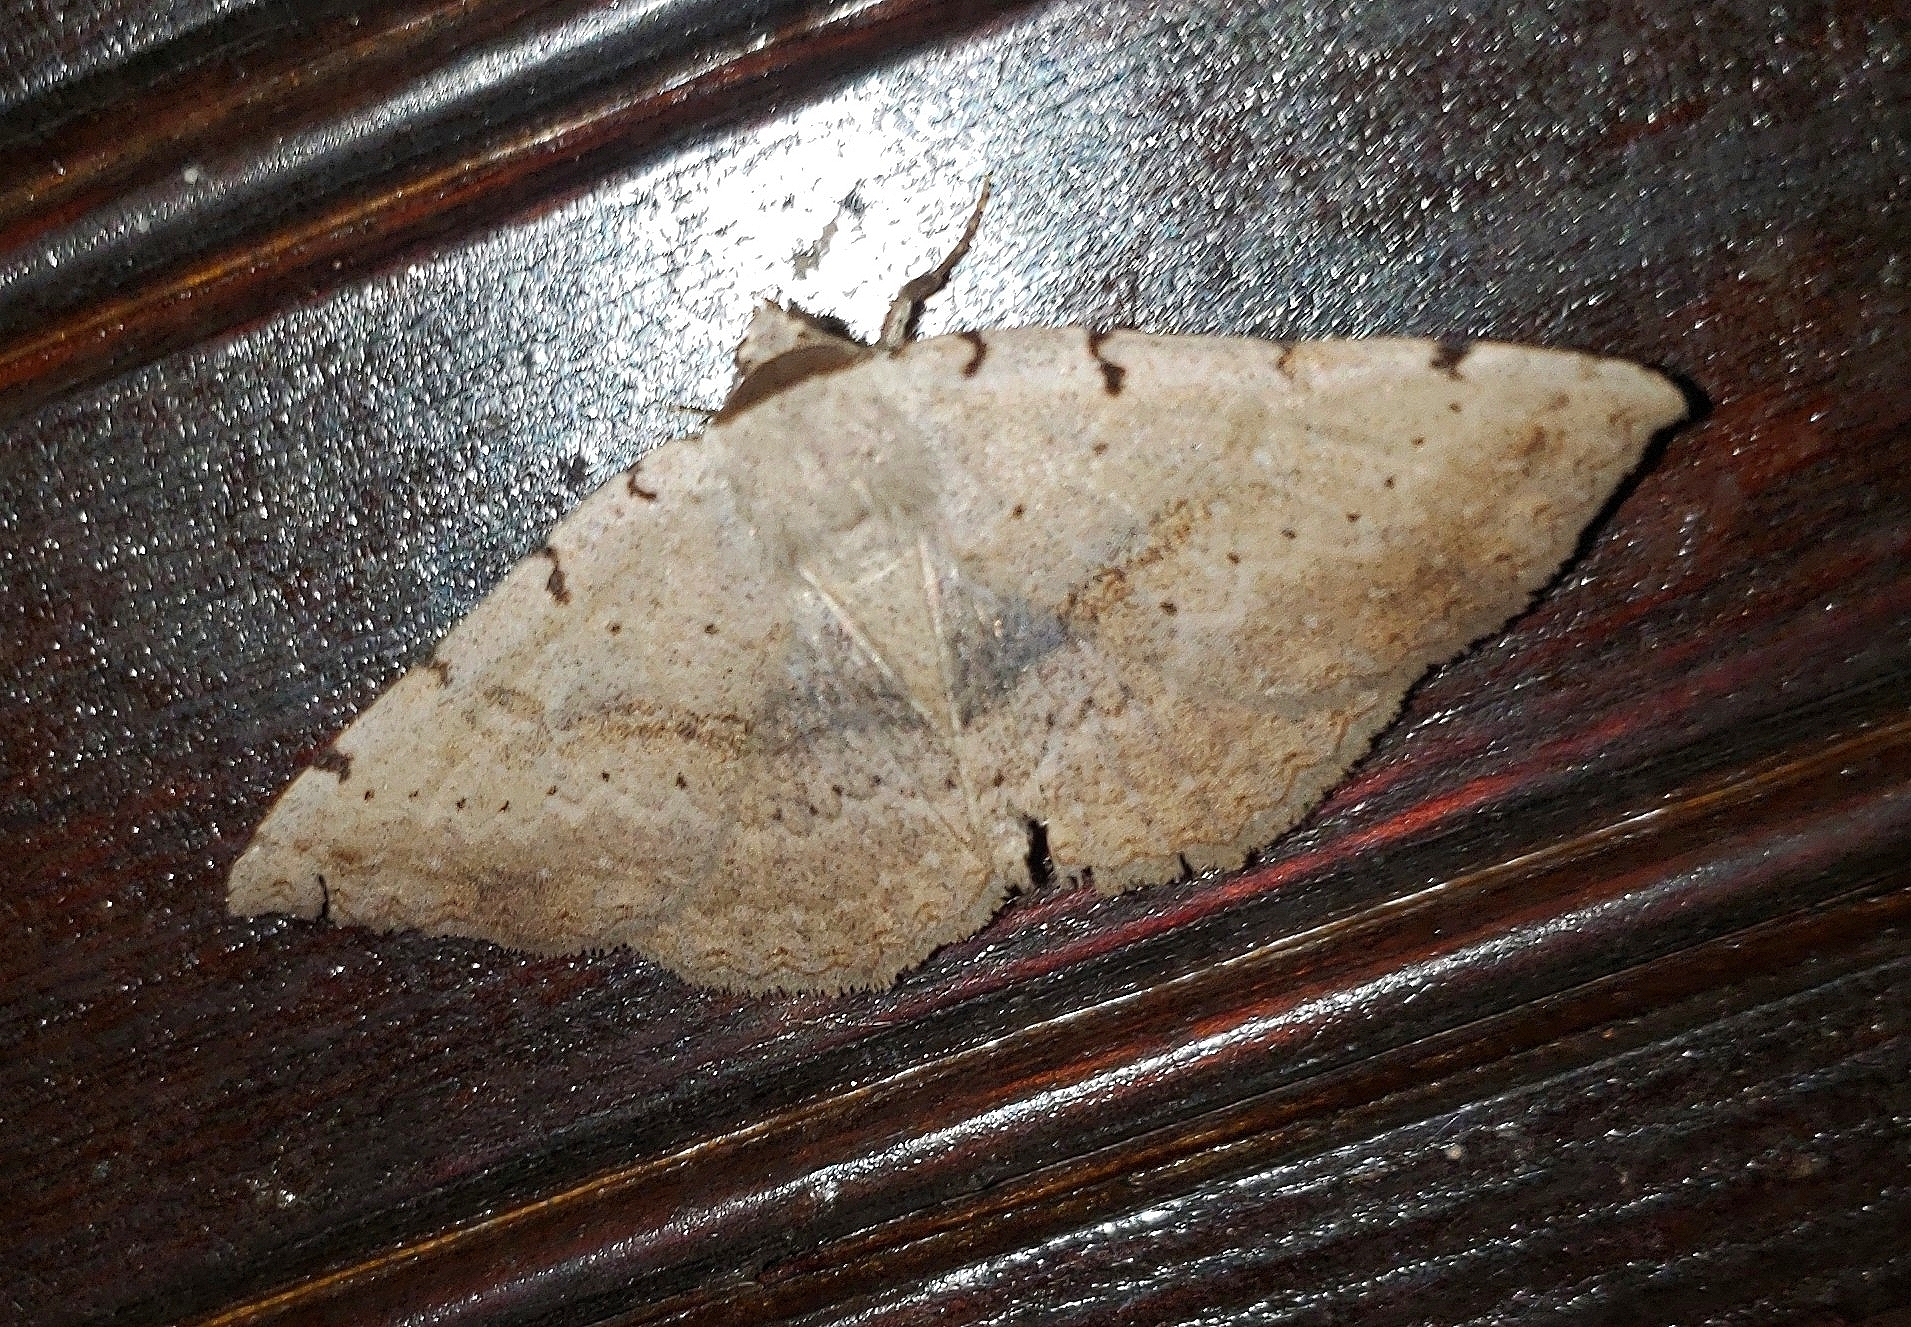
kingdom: Animalia
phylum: Arthropoda
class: Insecta
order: Lepidoptera
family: Erebidae
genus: Spiloloma
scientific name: Spiloloma lunilinea
